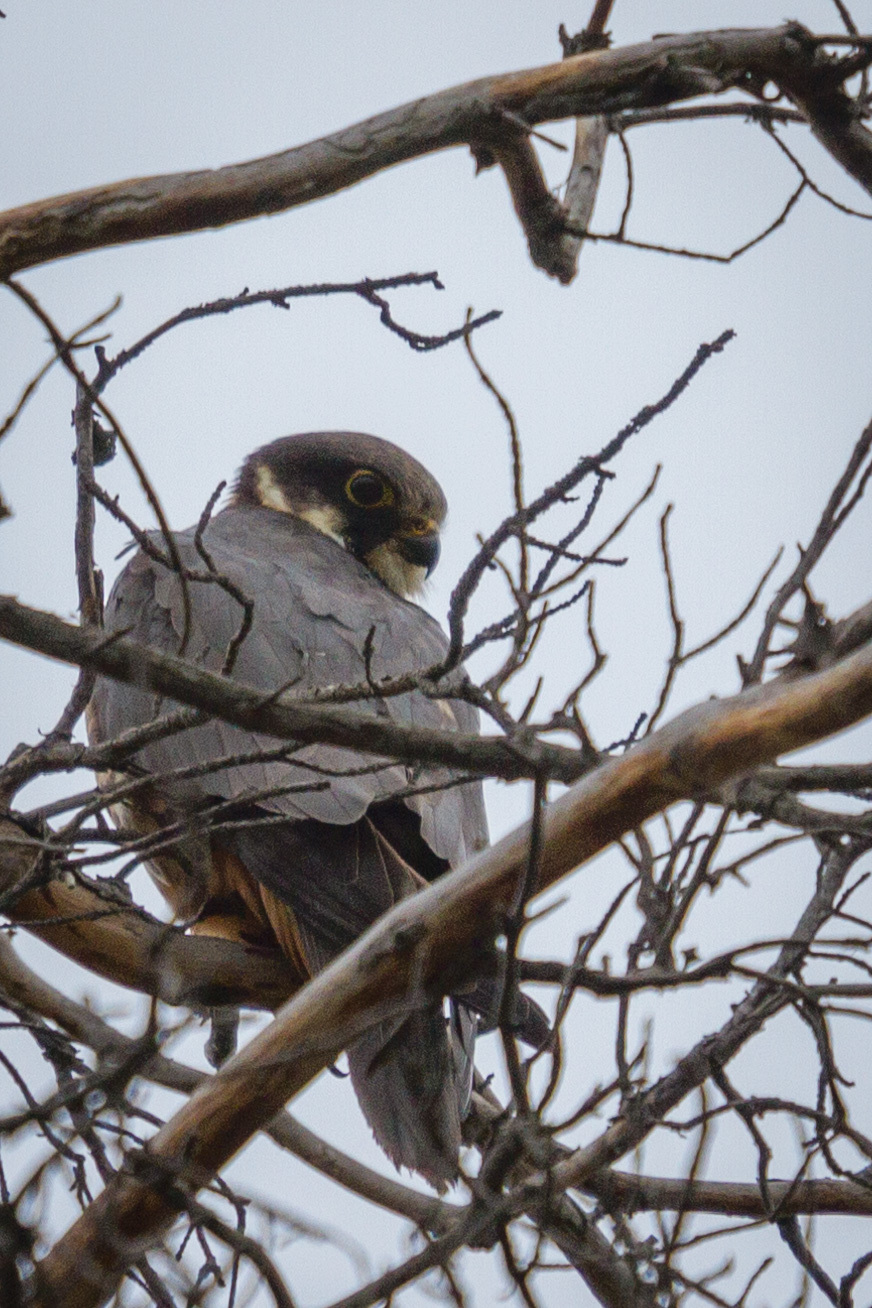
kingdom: Animalia
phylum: Chordata
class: Aves
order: Falconiformes
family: Falconidae
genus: Falco
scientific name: Falco subbuteo
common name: Eurasian hobby
